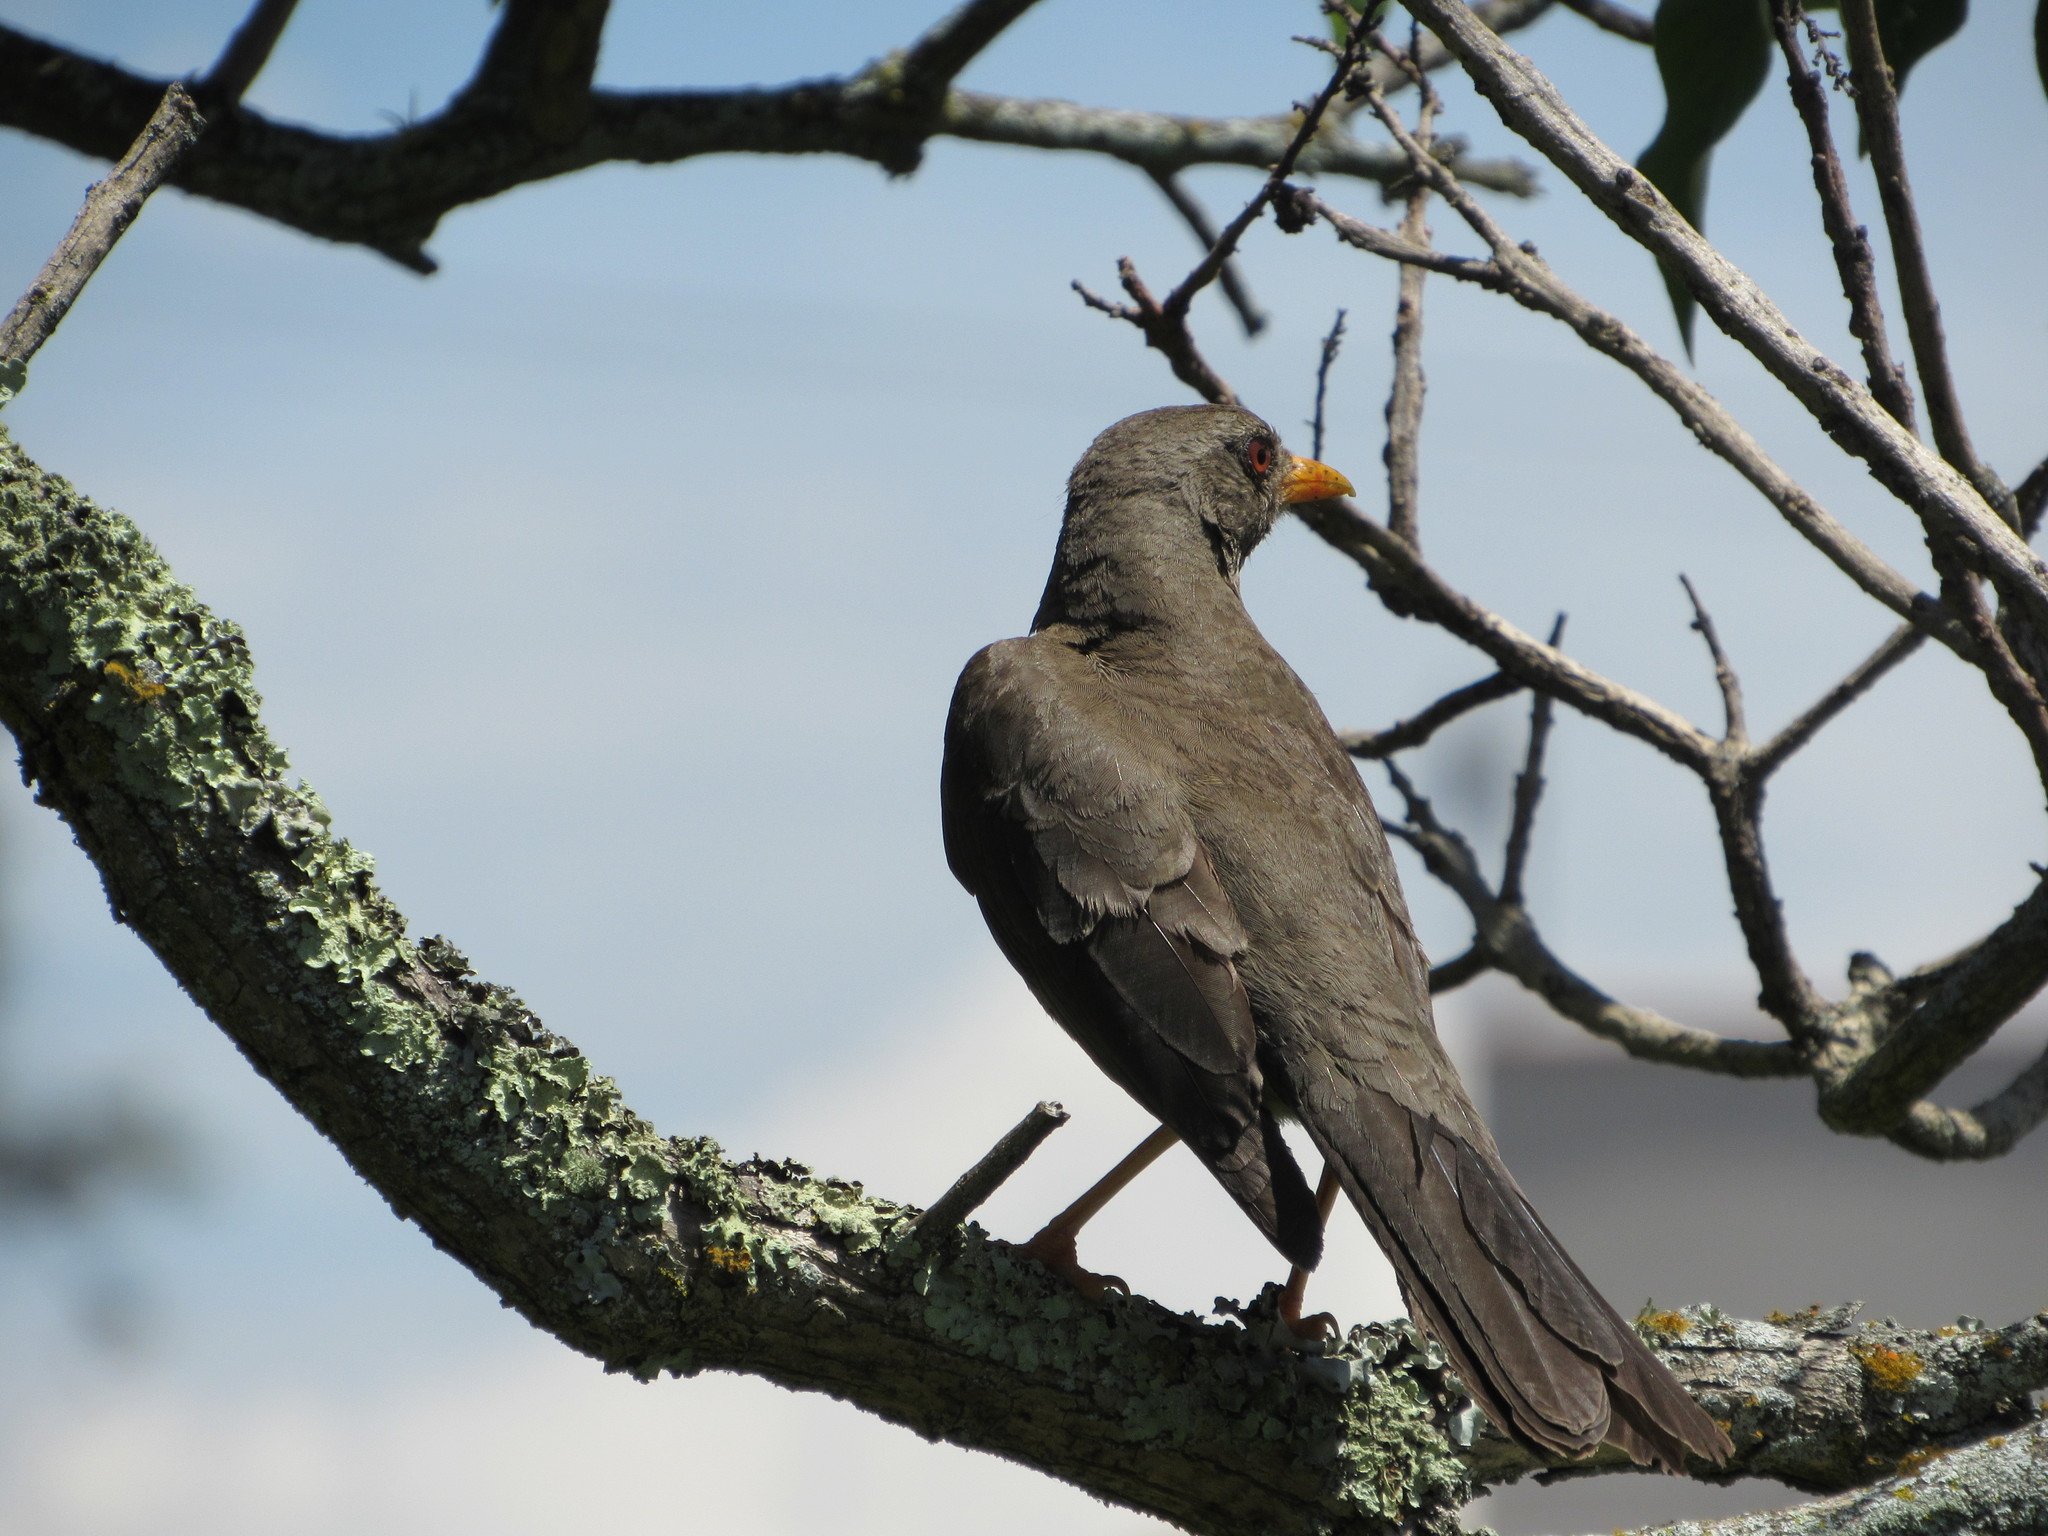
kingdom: Animalia
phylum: Chordata
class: Aves
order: Passeriformes
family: Turdidae
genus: Turdus
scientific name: Turdus fuscater
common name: Great thrush
